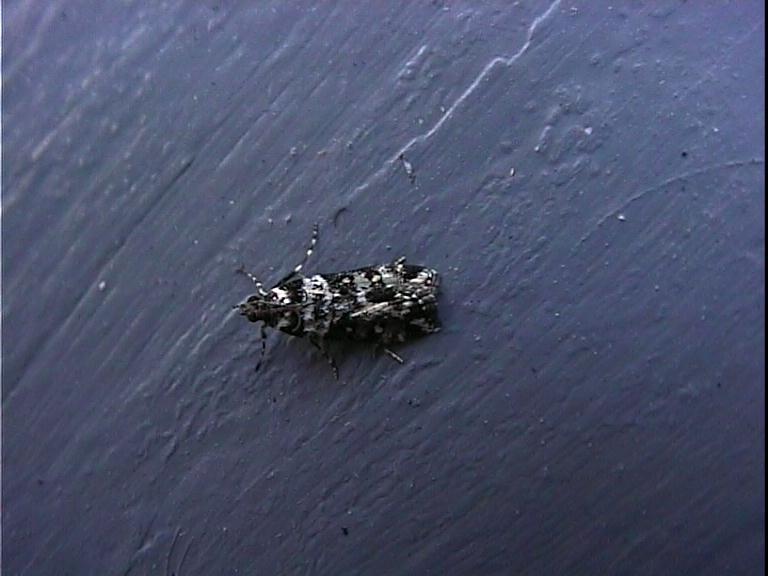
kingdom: Animalia
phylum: Arthropoda
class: Insecta
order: Lepidoptera
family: Crambidae
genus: Eudonia
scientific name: Eudonia diphtheralis
